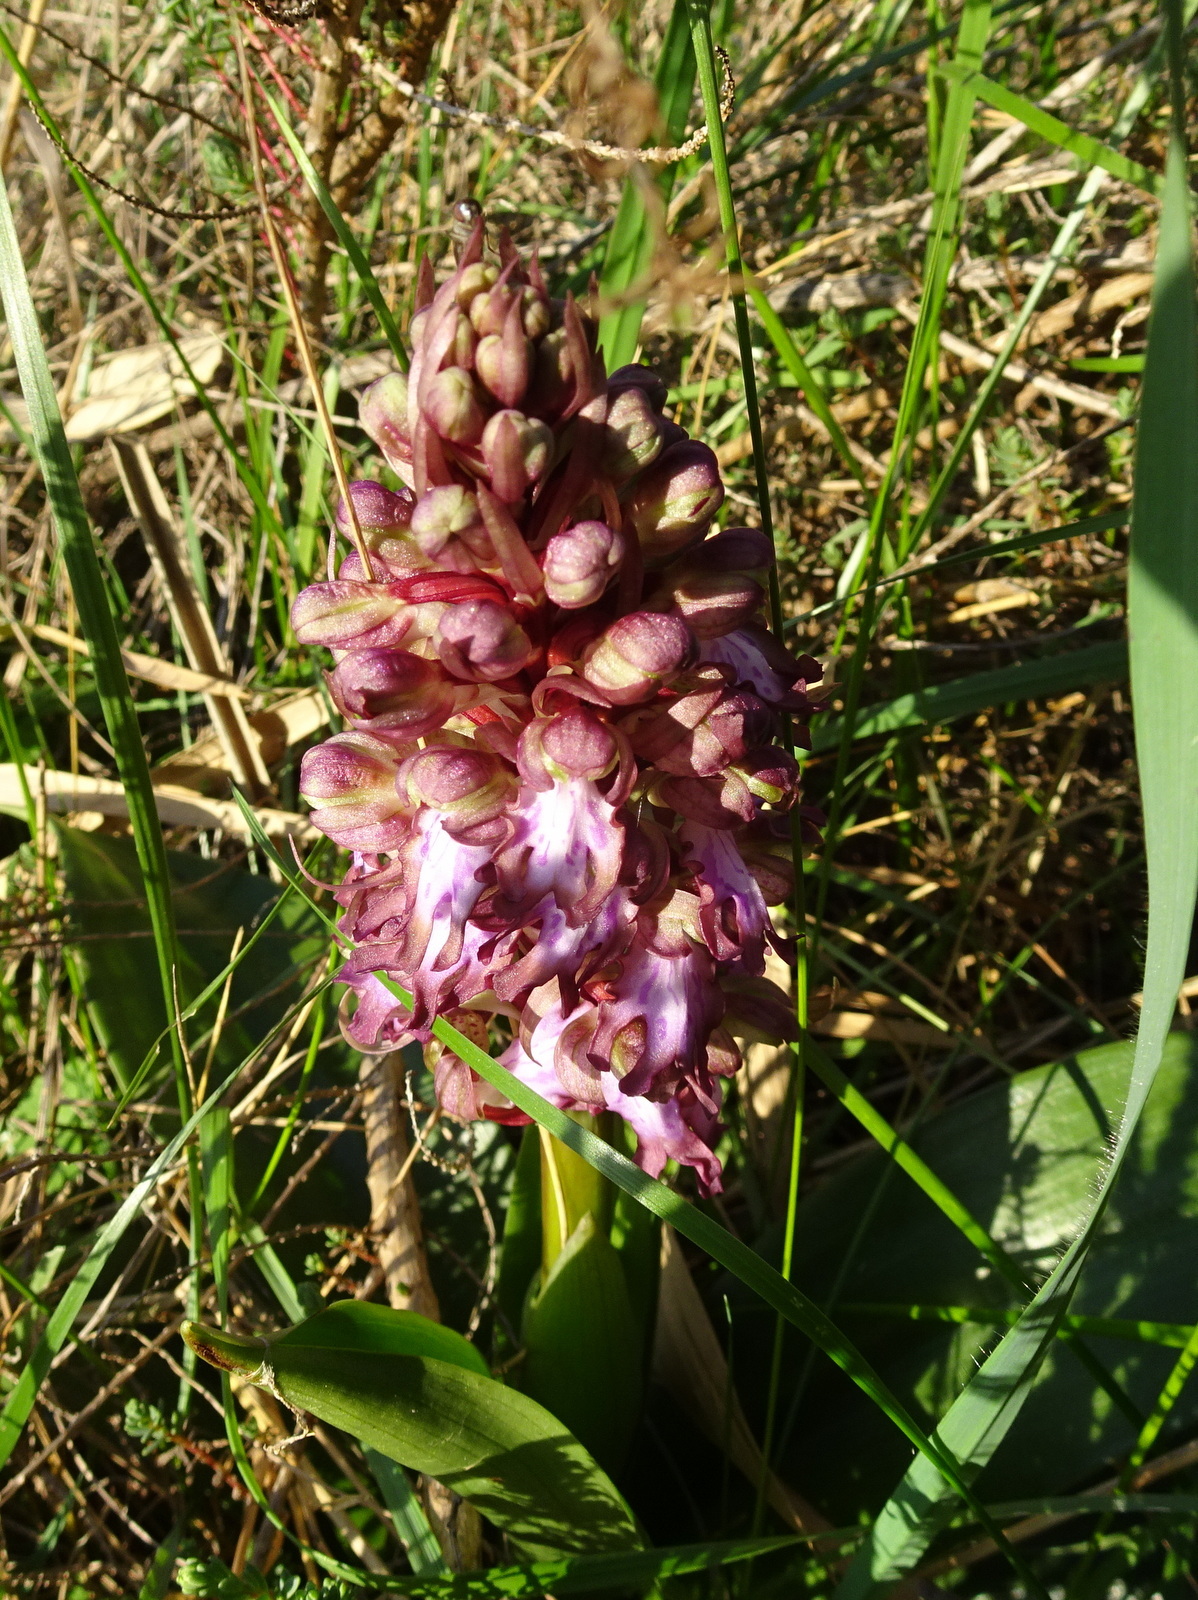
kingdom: Plantae
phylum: Tracheophyta
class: Liliopsida
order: Asparagales
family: Orchidaceae
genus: Himantoglossum
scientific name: Himantoglossum robertianum
